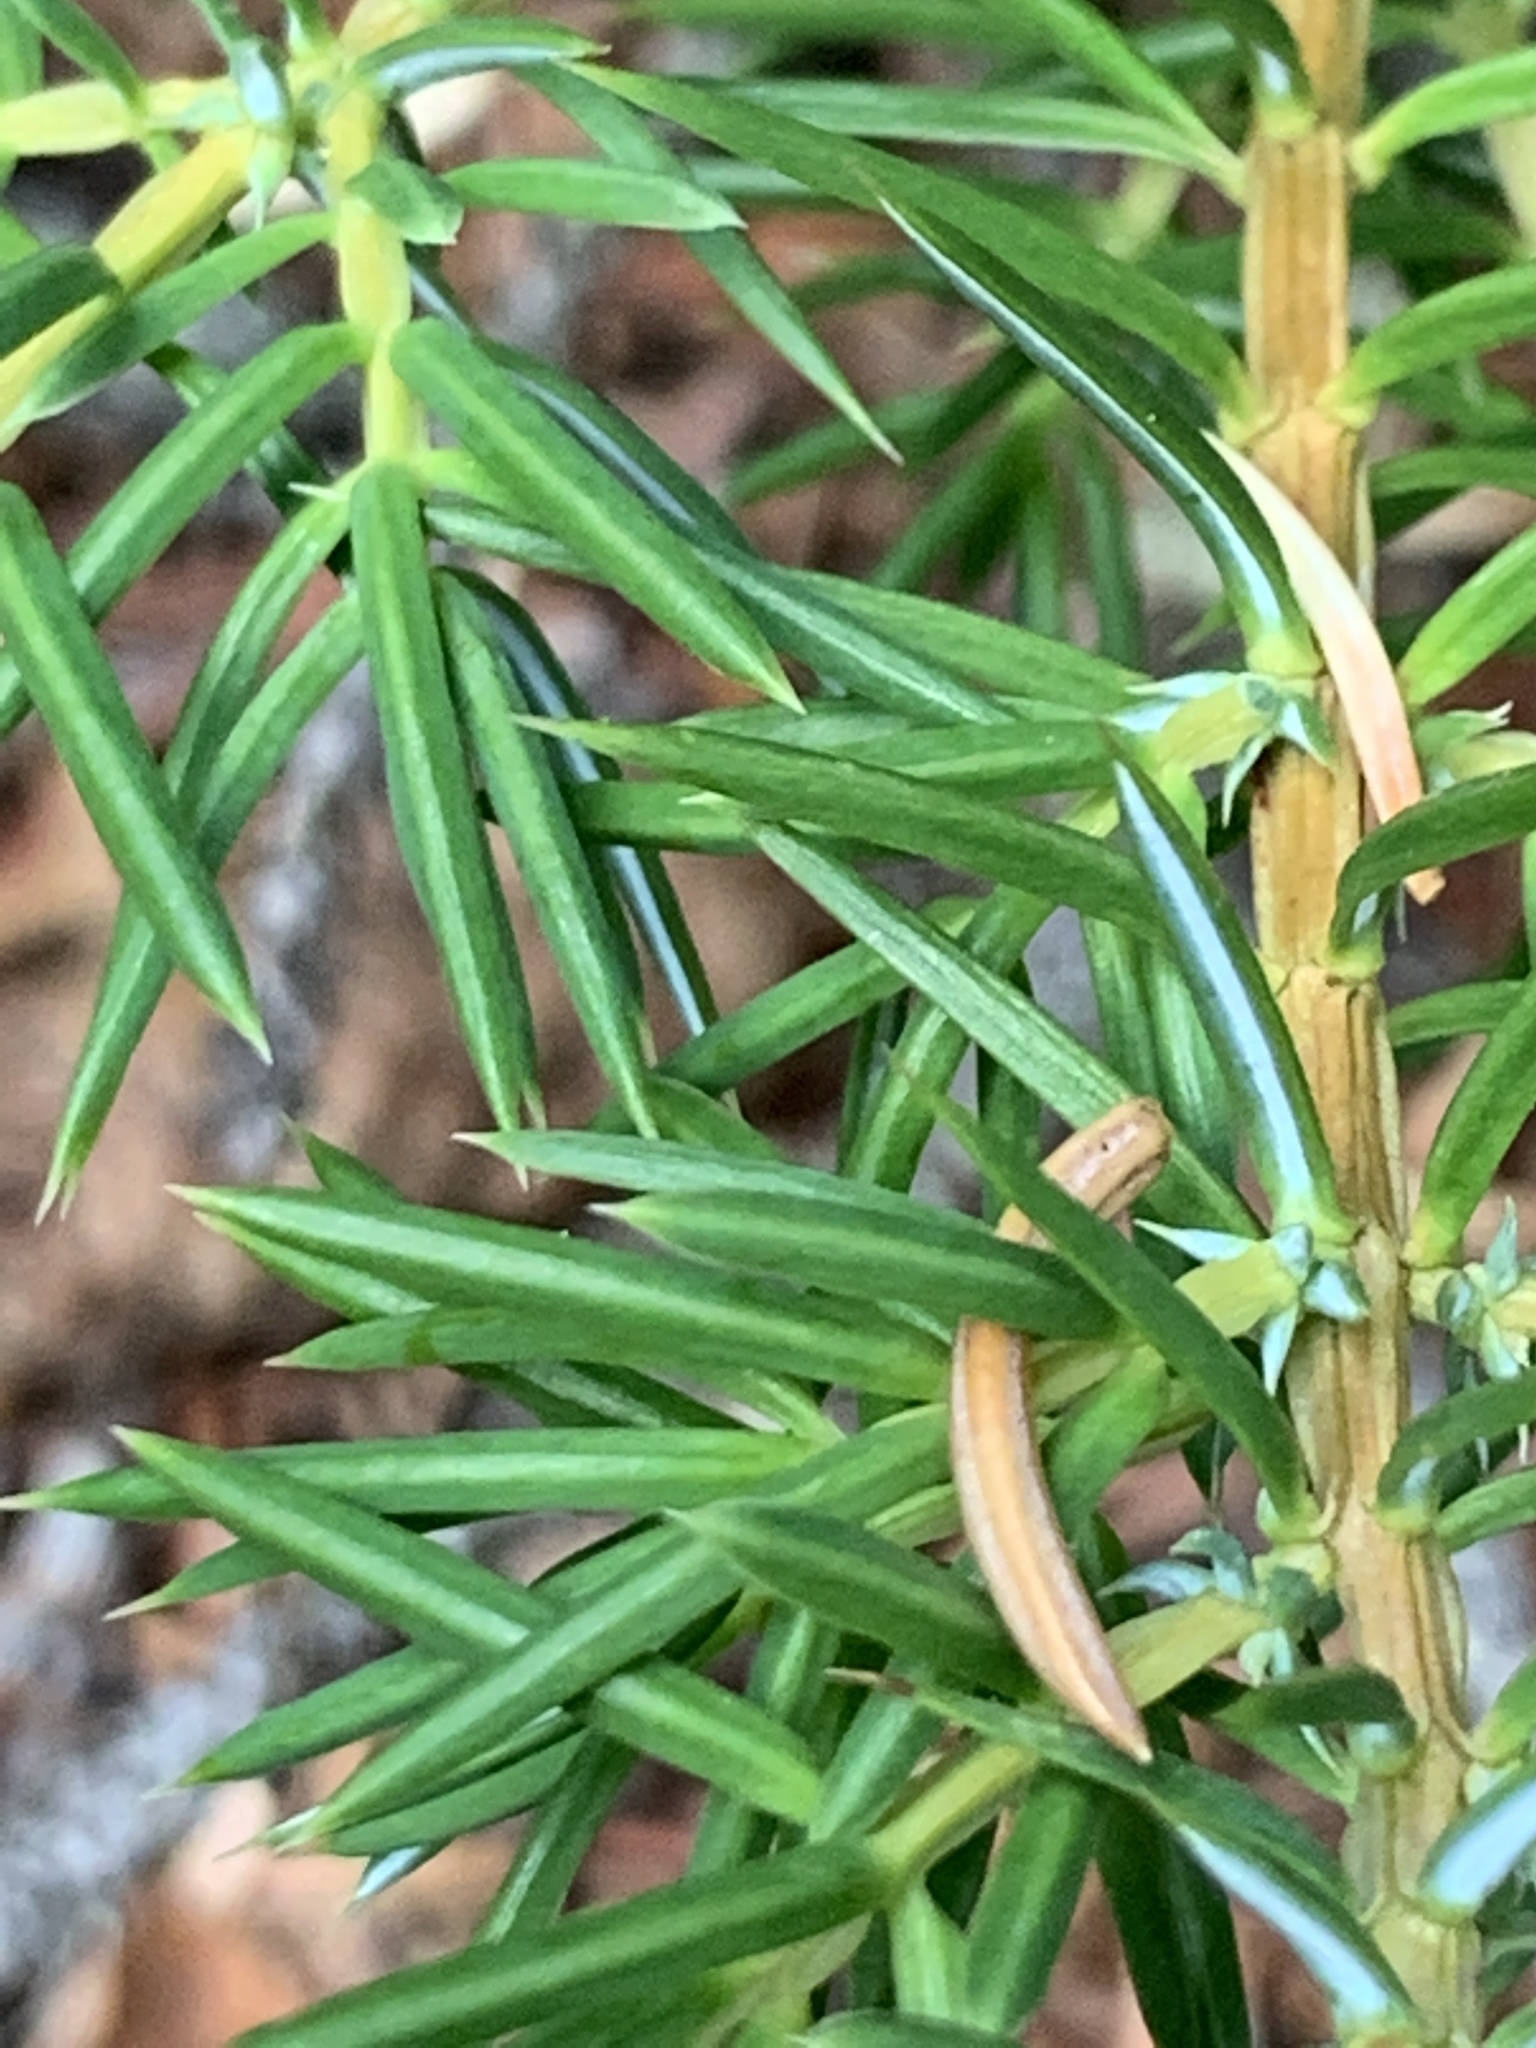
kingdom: Plantae
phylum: Tracheophyta
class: Pinopsida
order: Pinales
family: Cupressaceae
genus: Juniperus
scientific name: Juniperus communis
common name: Common juniper
